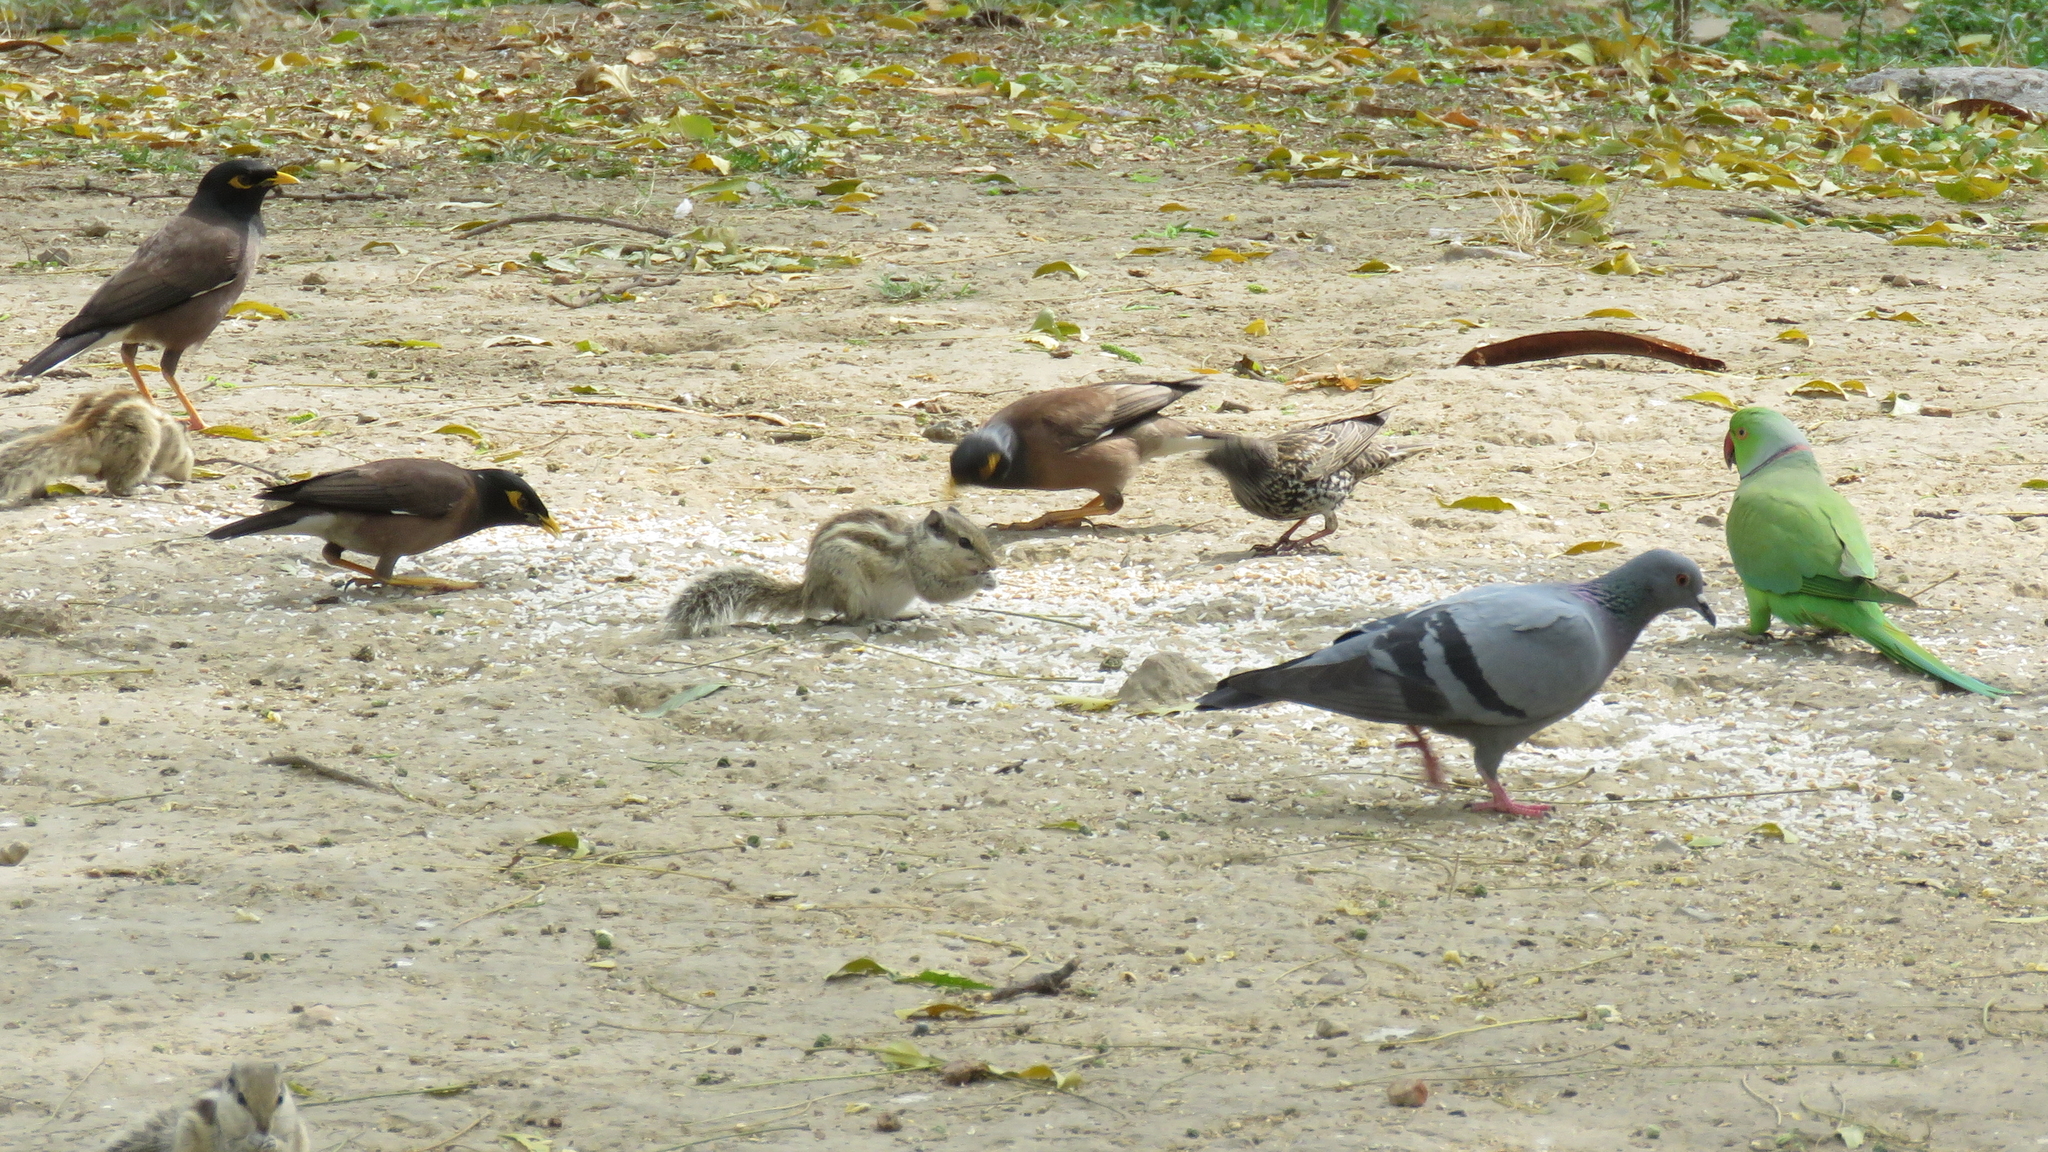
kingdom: Animalia
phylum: Chordata
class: Aves
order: Columbiformes
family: Columbidae
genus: Columba
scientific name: Columba livia
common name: Rock pigeon
